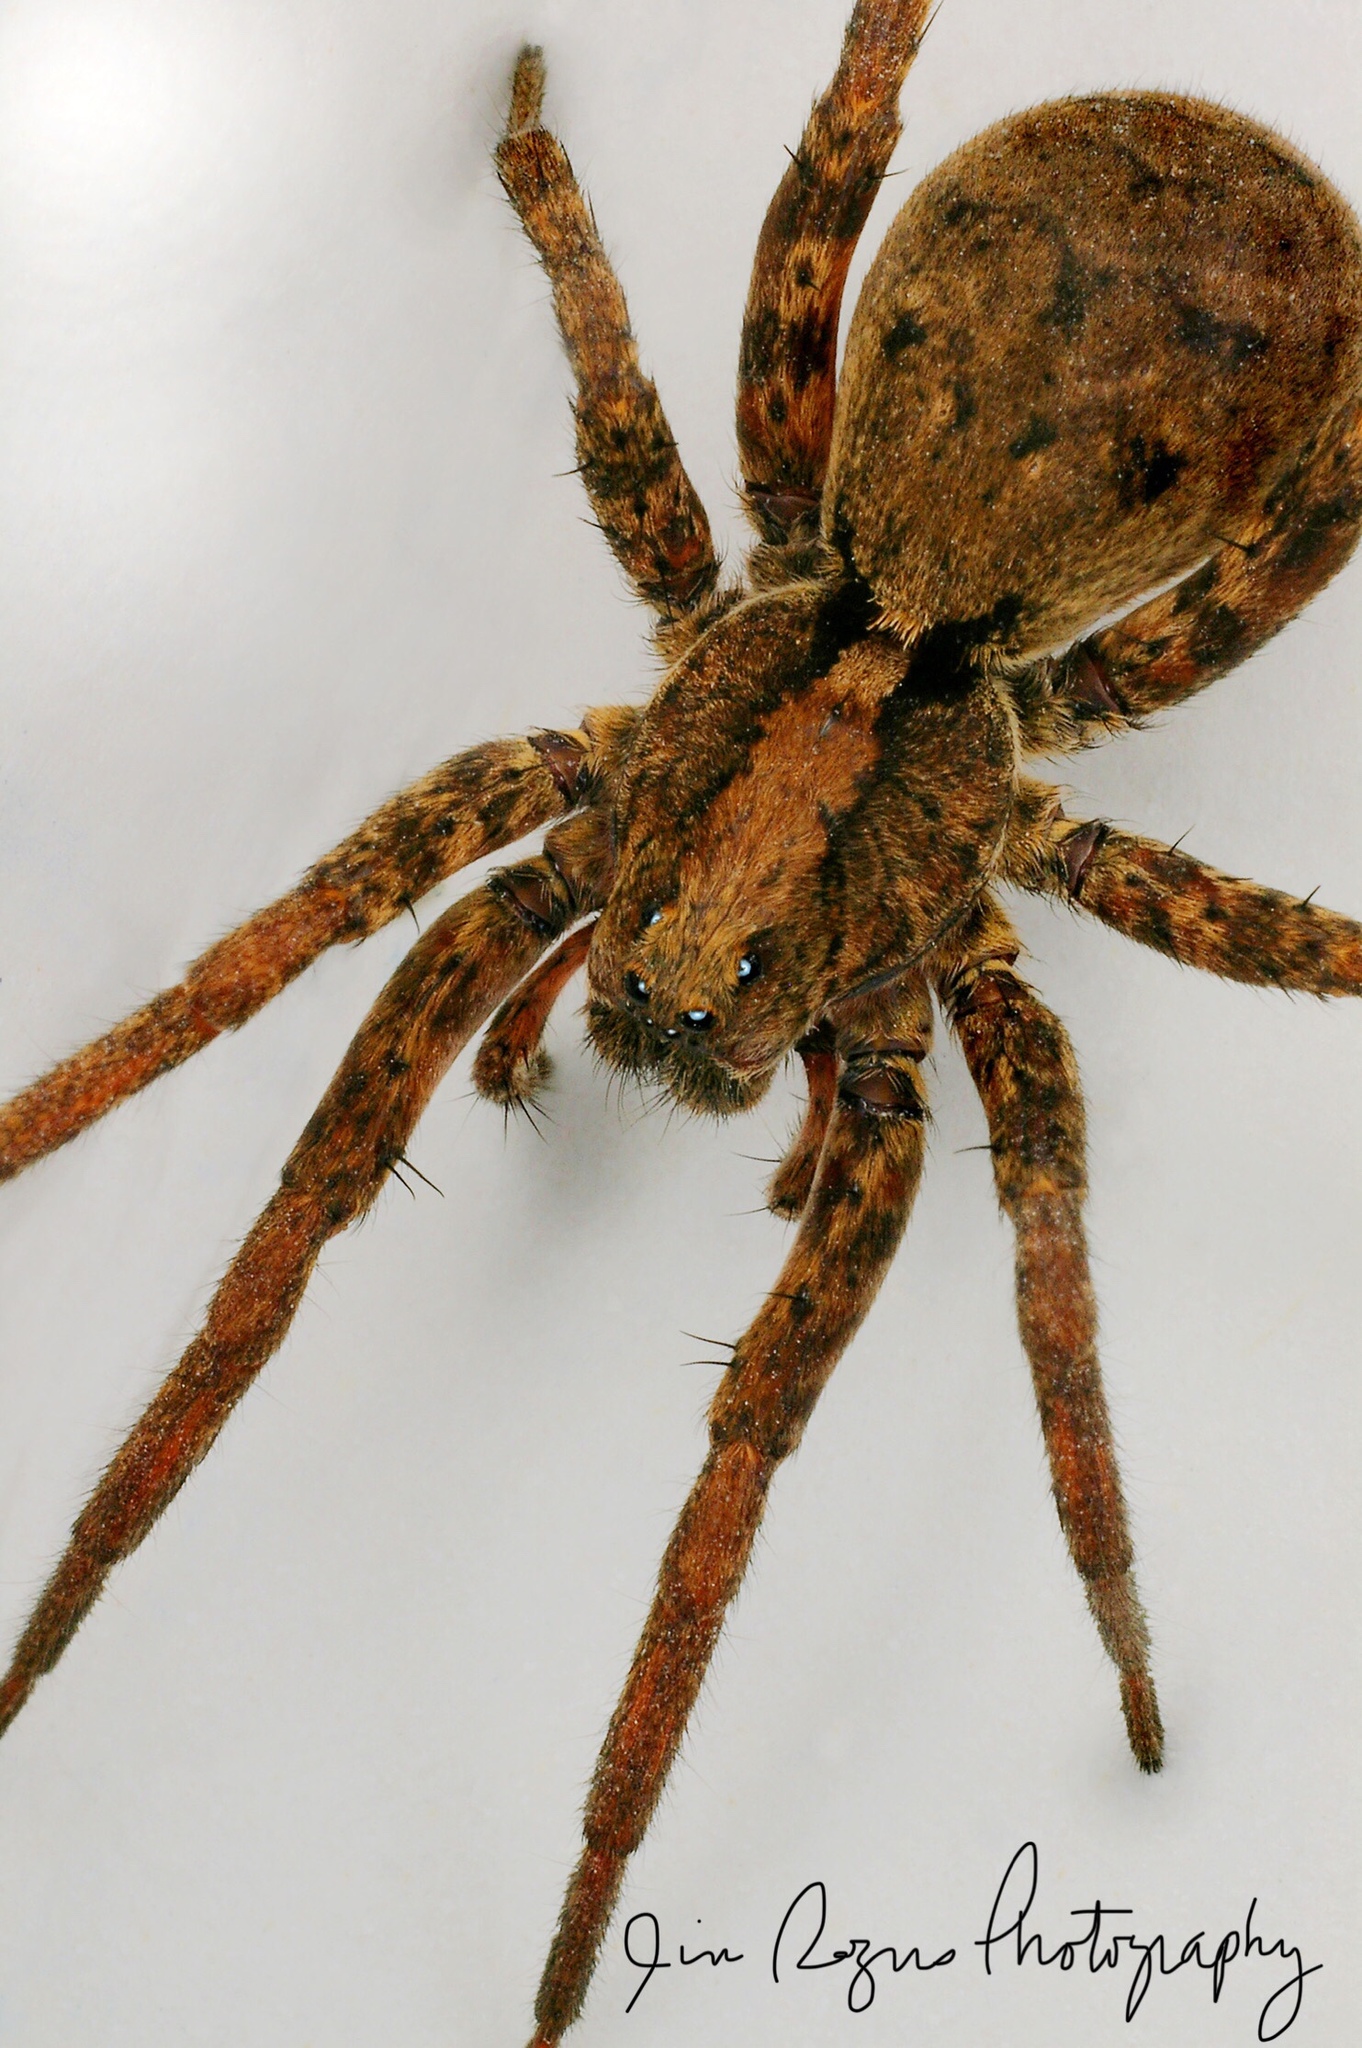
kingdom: Animalia
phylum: Arthropoda
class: Arachnida
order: Araneae
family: Lycosidae
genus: Gladicosa
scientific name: Gladicosa gulosa
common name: Drumming sword wolf spider
